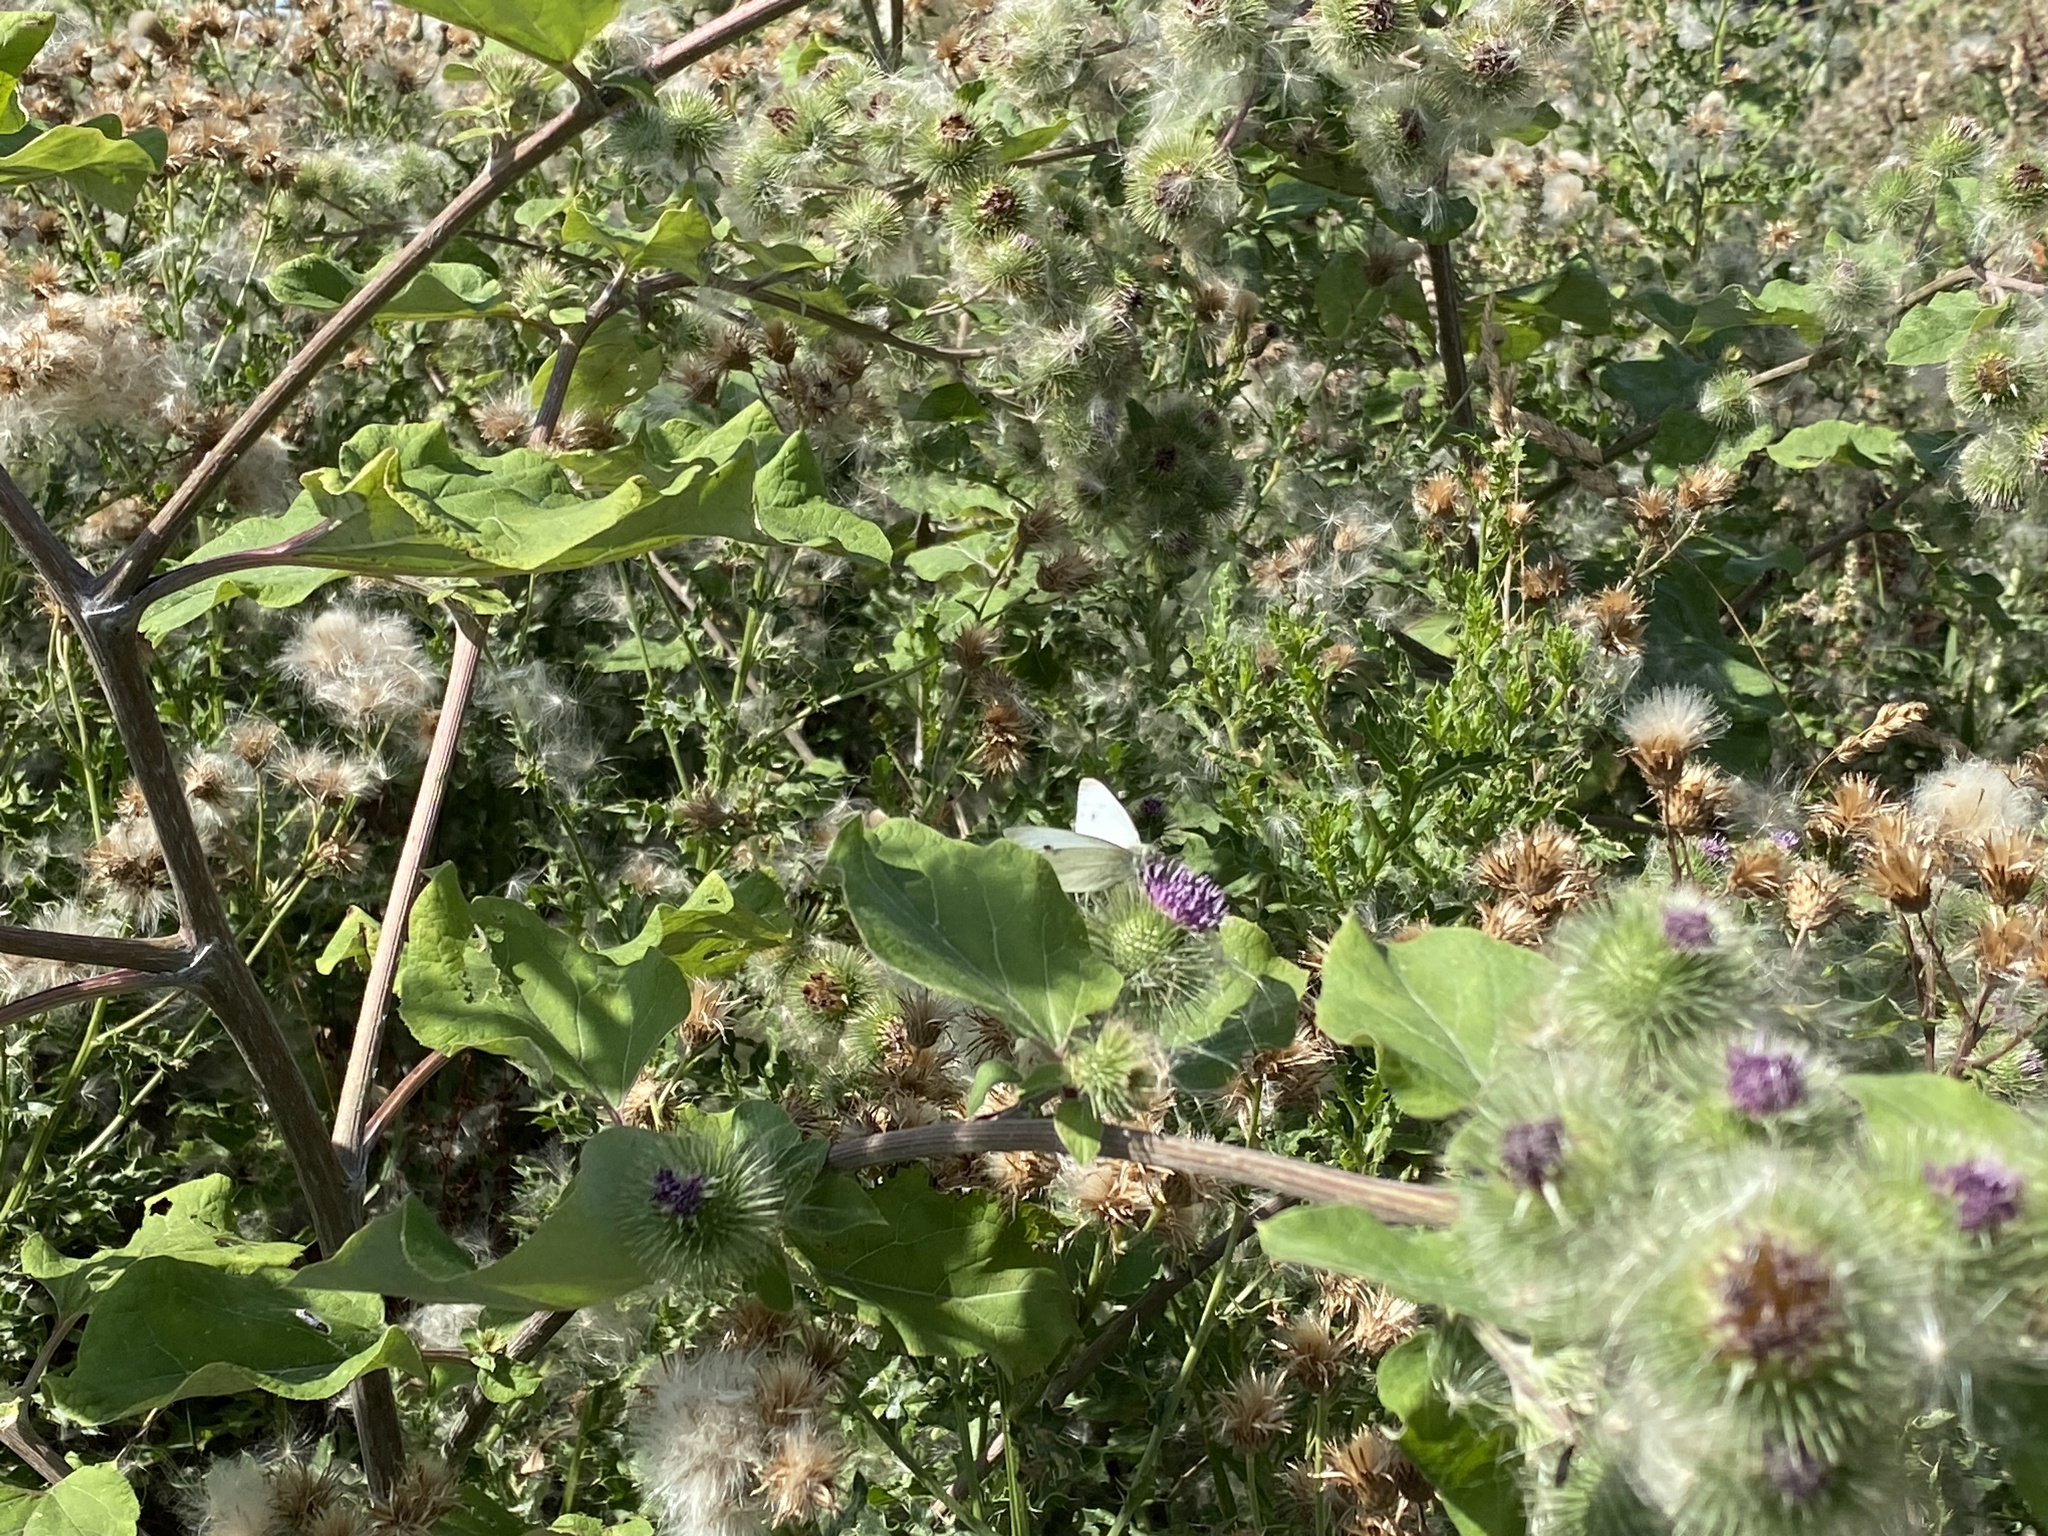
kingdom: Animalia
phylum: Arthropoda
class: Insecta
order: Lepidoptera
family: Pieridae
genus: Pieris
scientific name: Pieris rapae
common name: Small white
